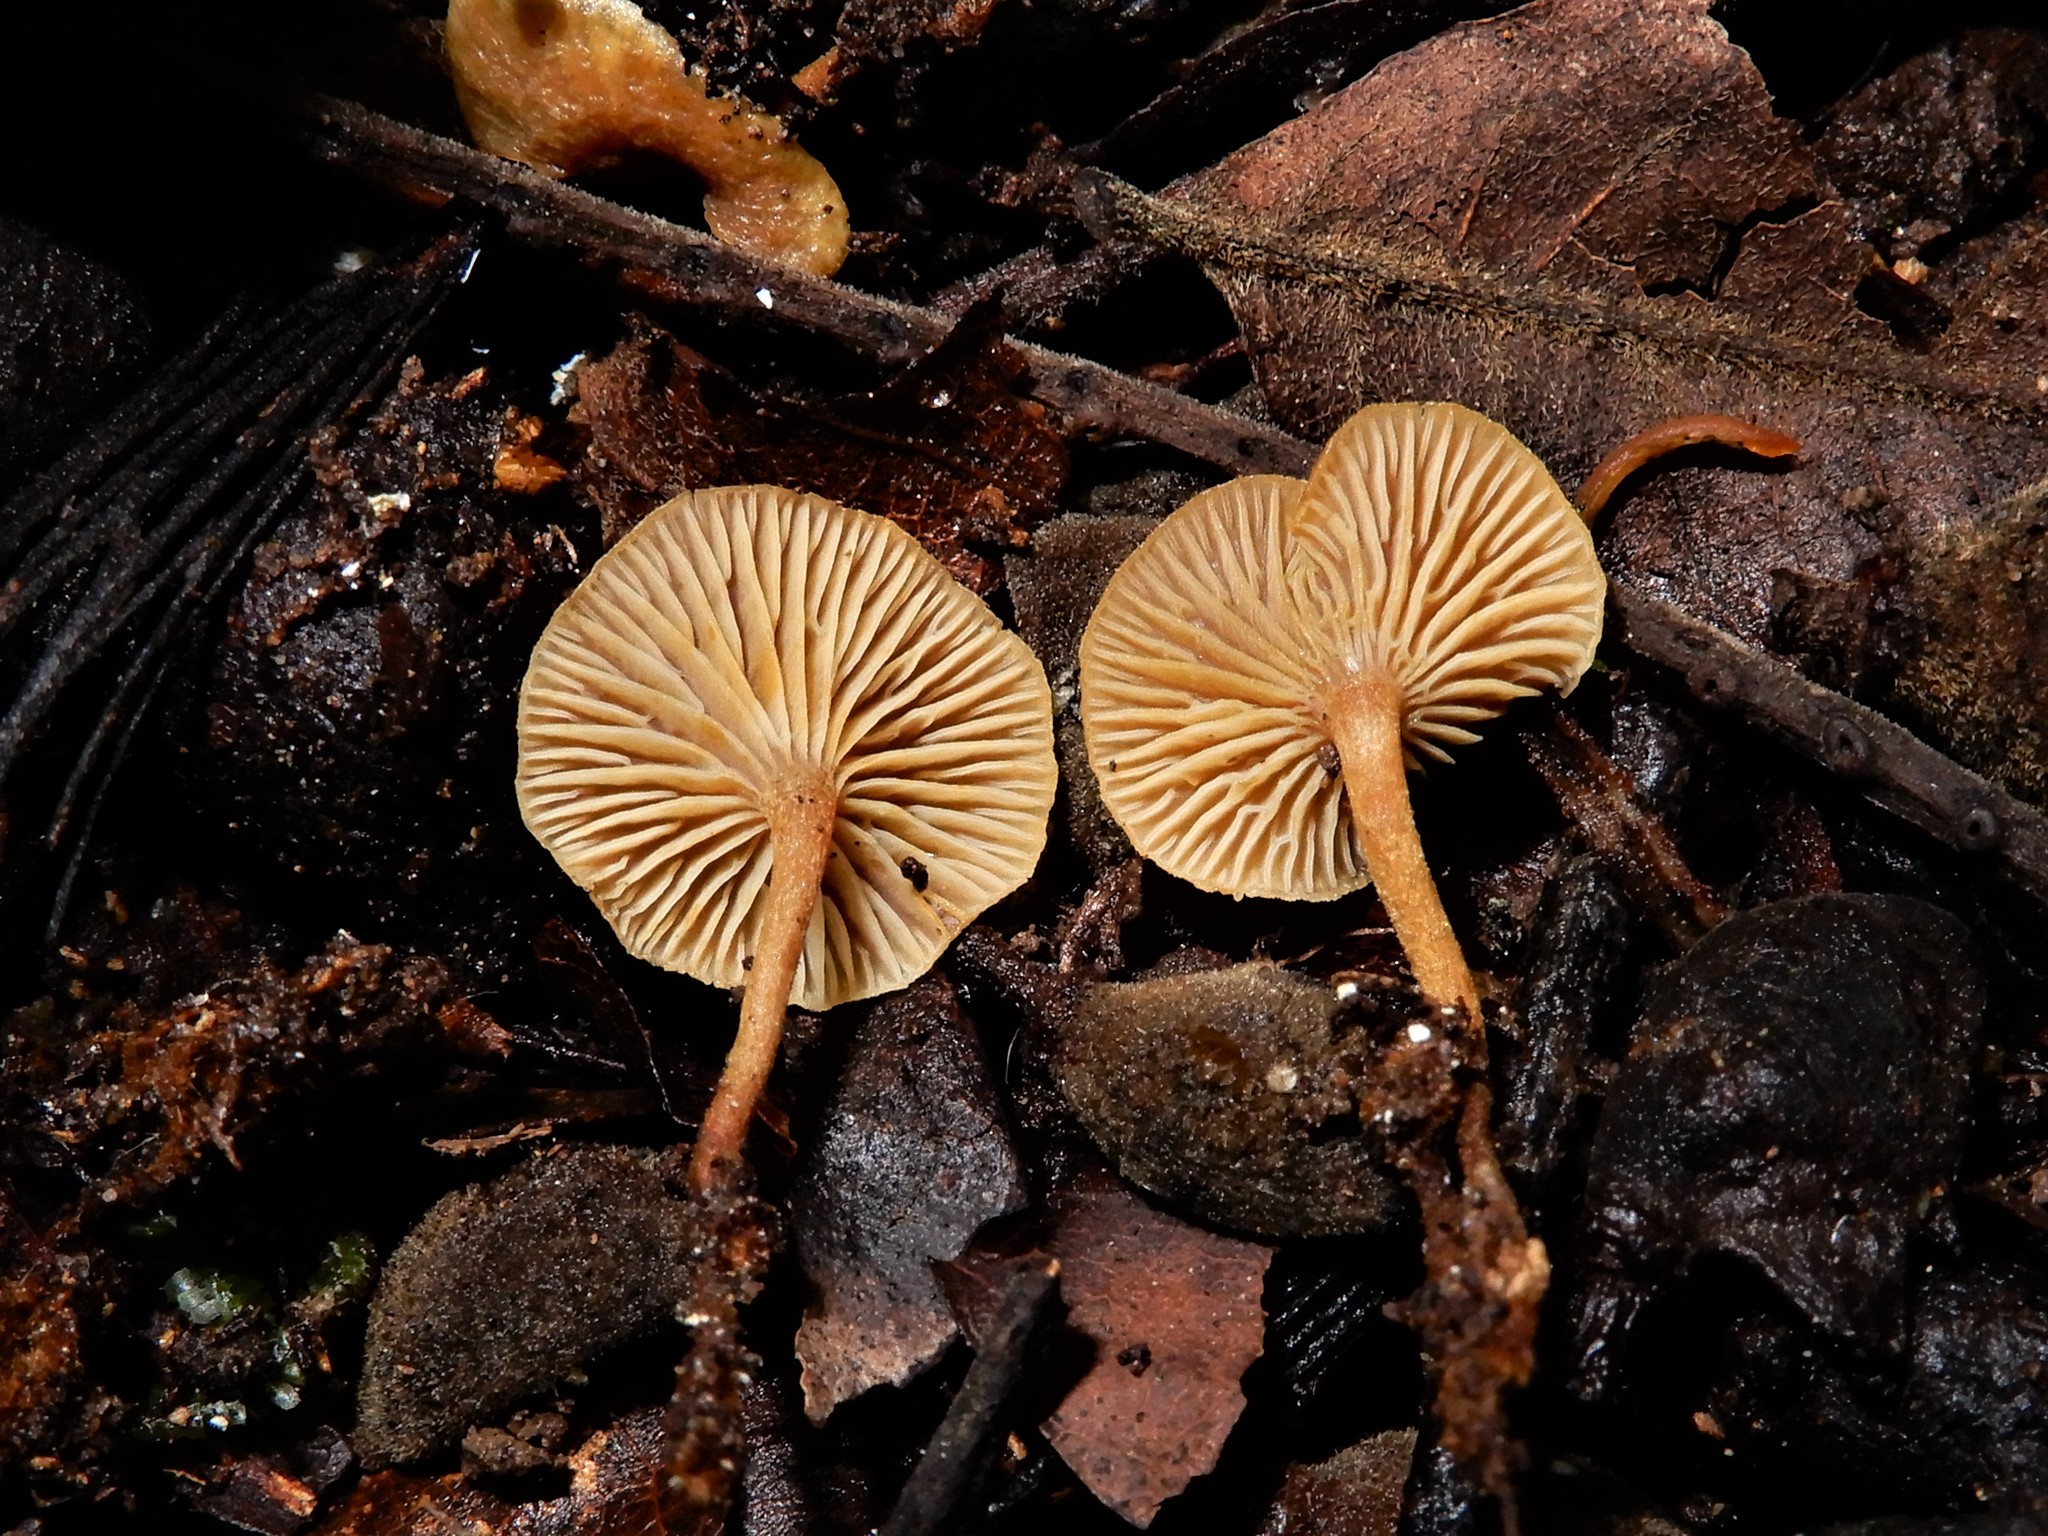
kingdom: Fungi
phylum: Basidiomycota
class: Agaricomycetes
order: Agaricales
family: Mycenaceae
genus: Xeromphalina
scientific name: Xeromphalina podocarpi
